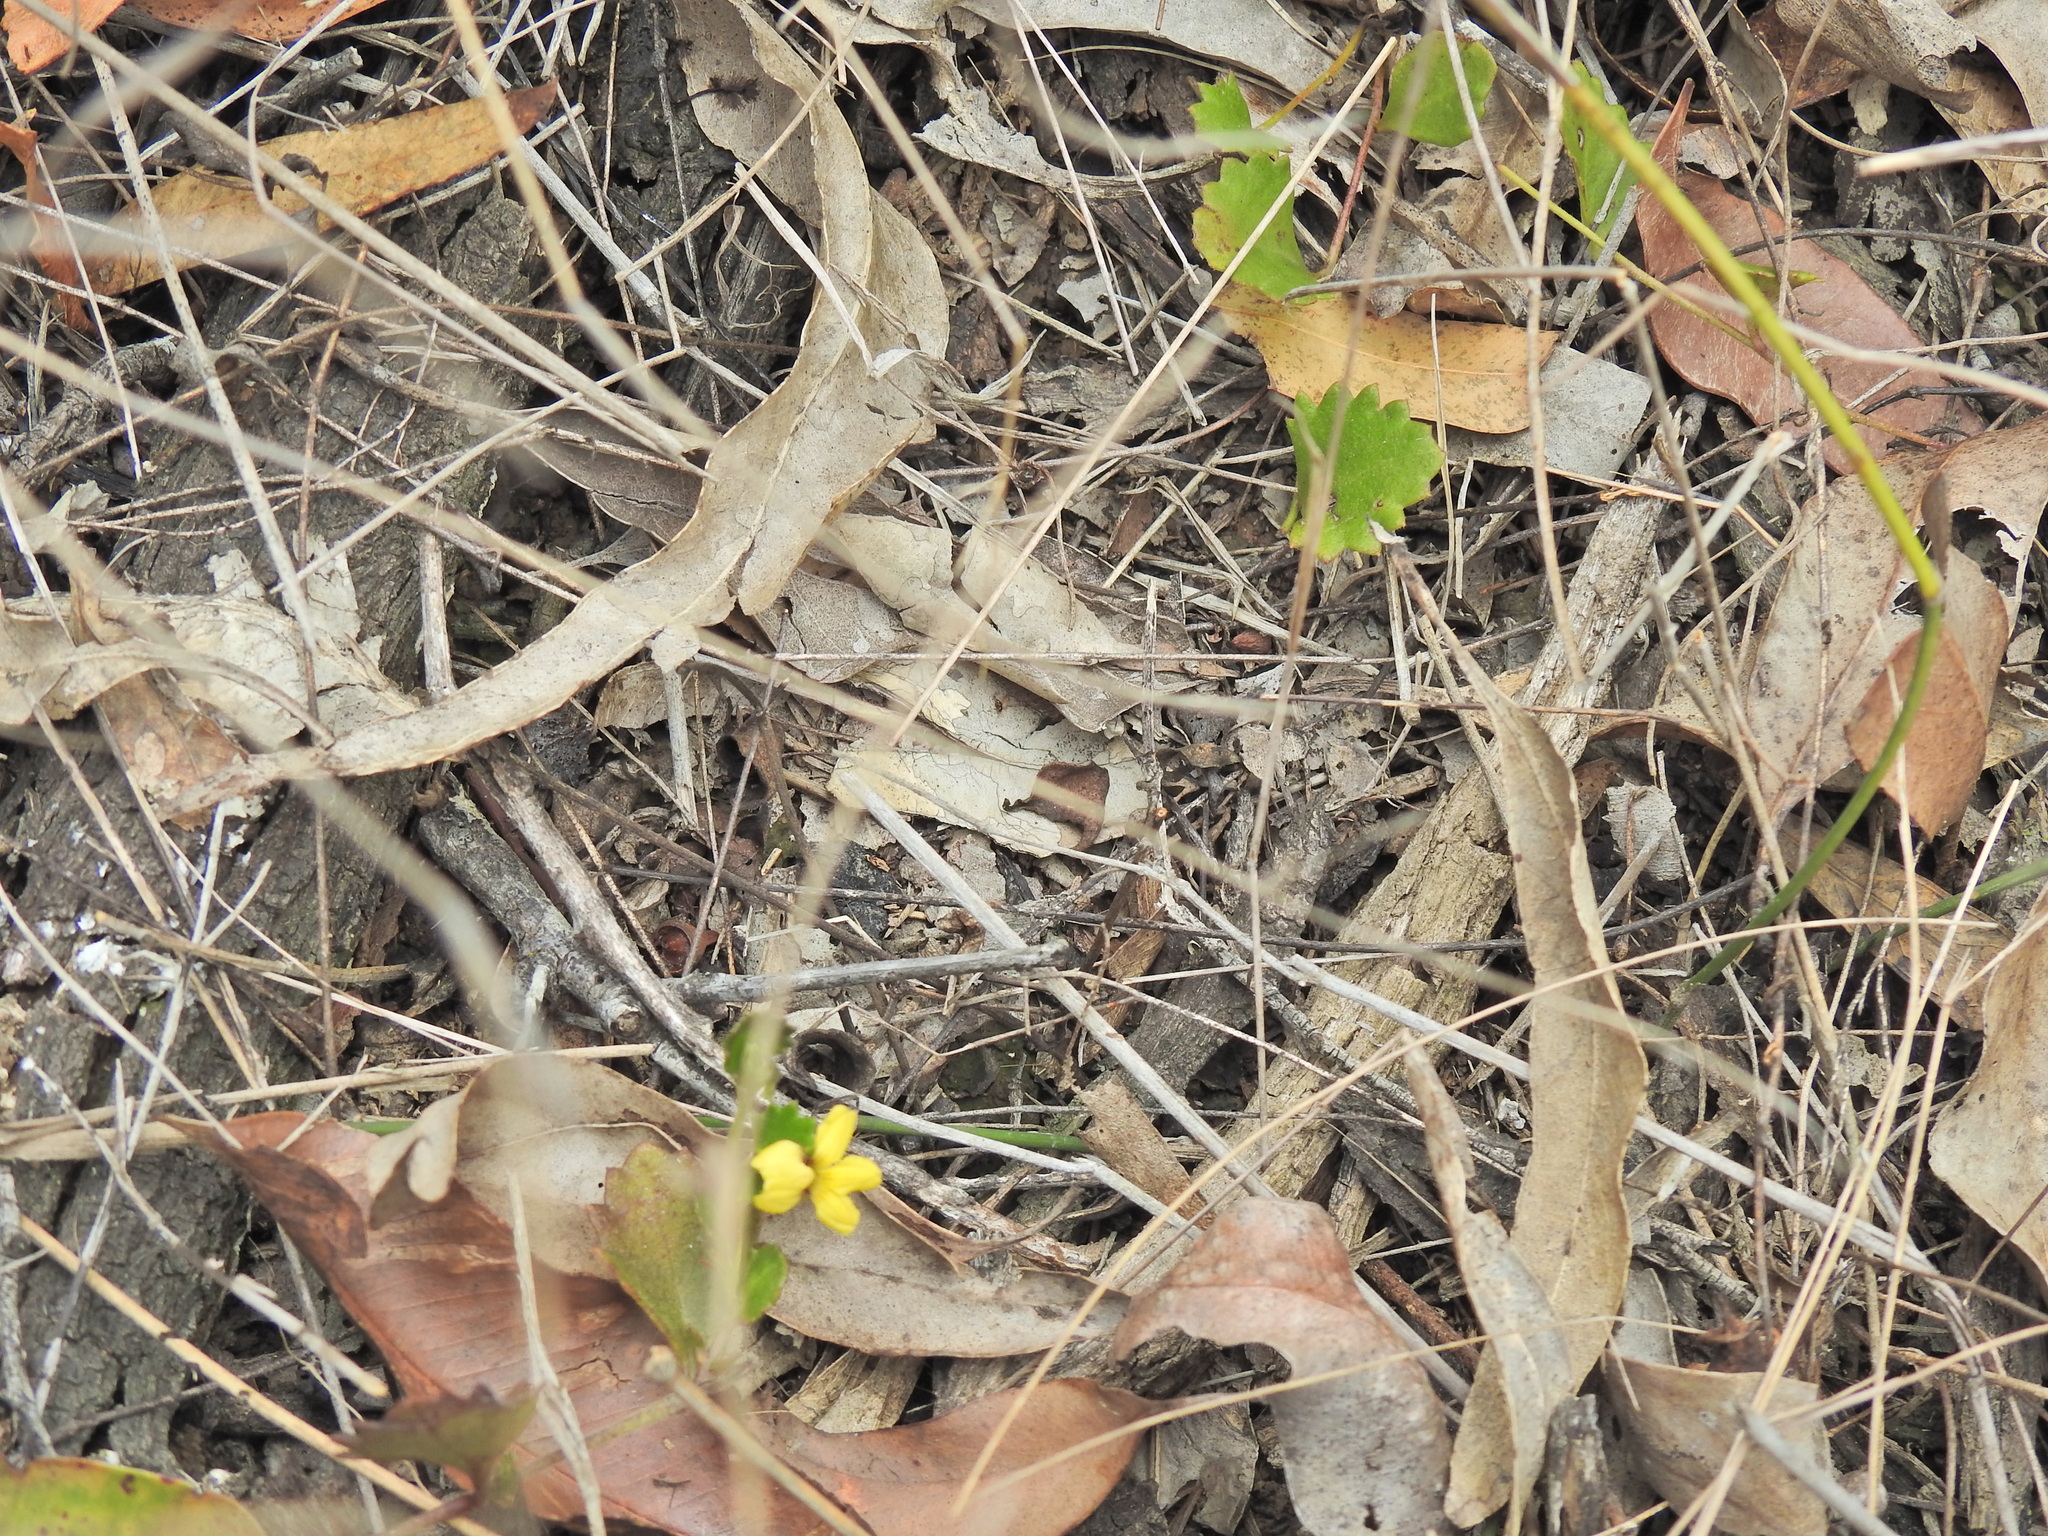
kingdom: Plantae
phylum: Tracheophyta
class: Magnoliopsida
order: Asterales
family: Goodeniaceae
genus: Goodenia
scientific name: Goodenia rotundifolia
